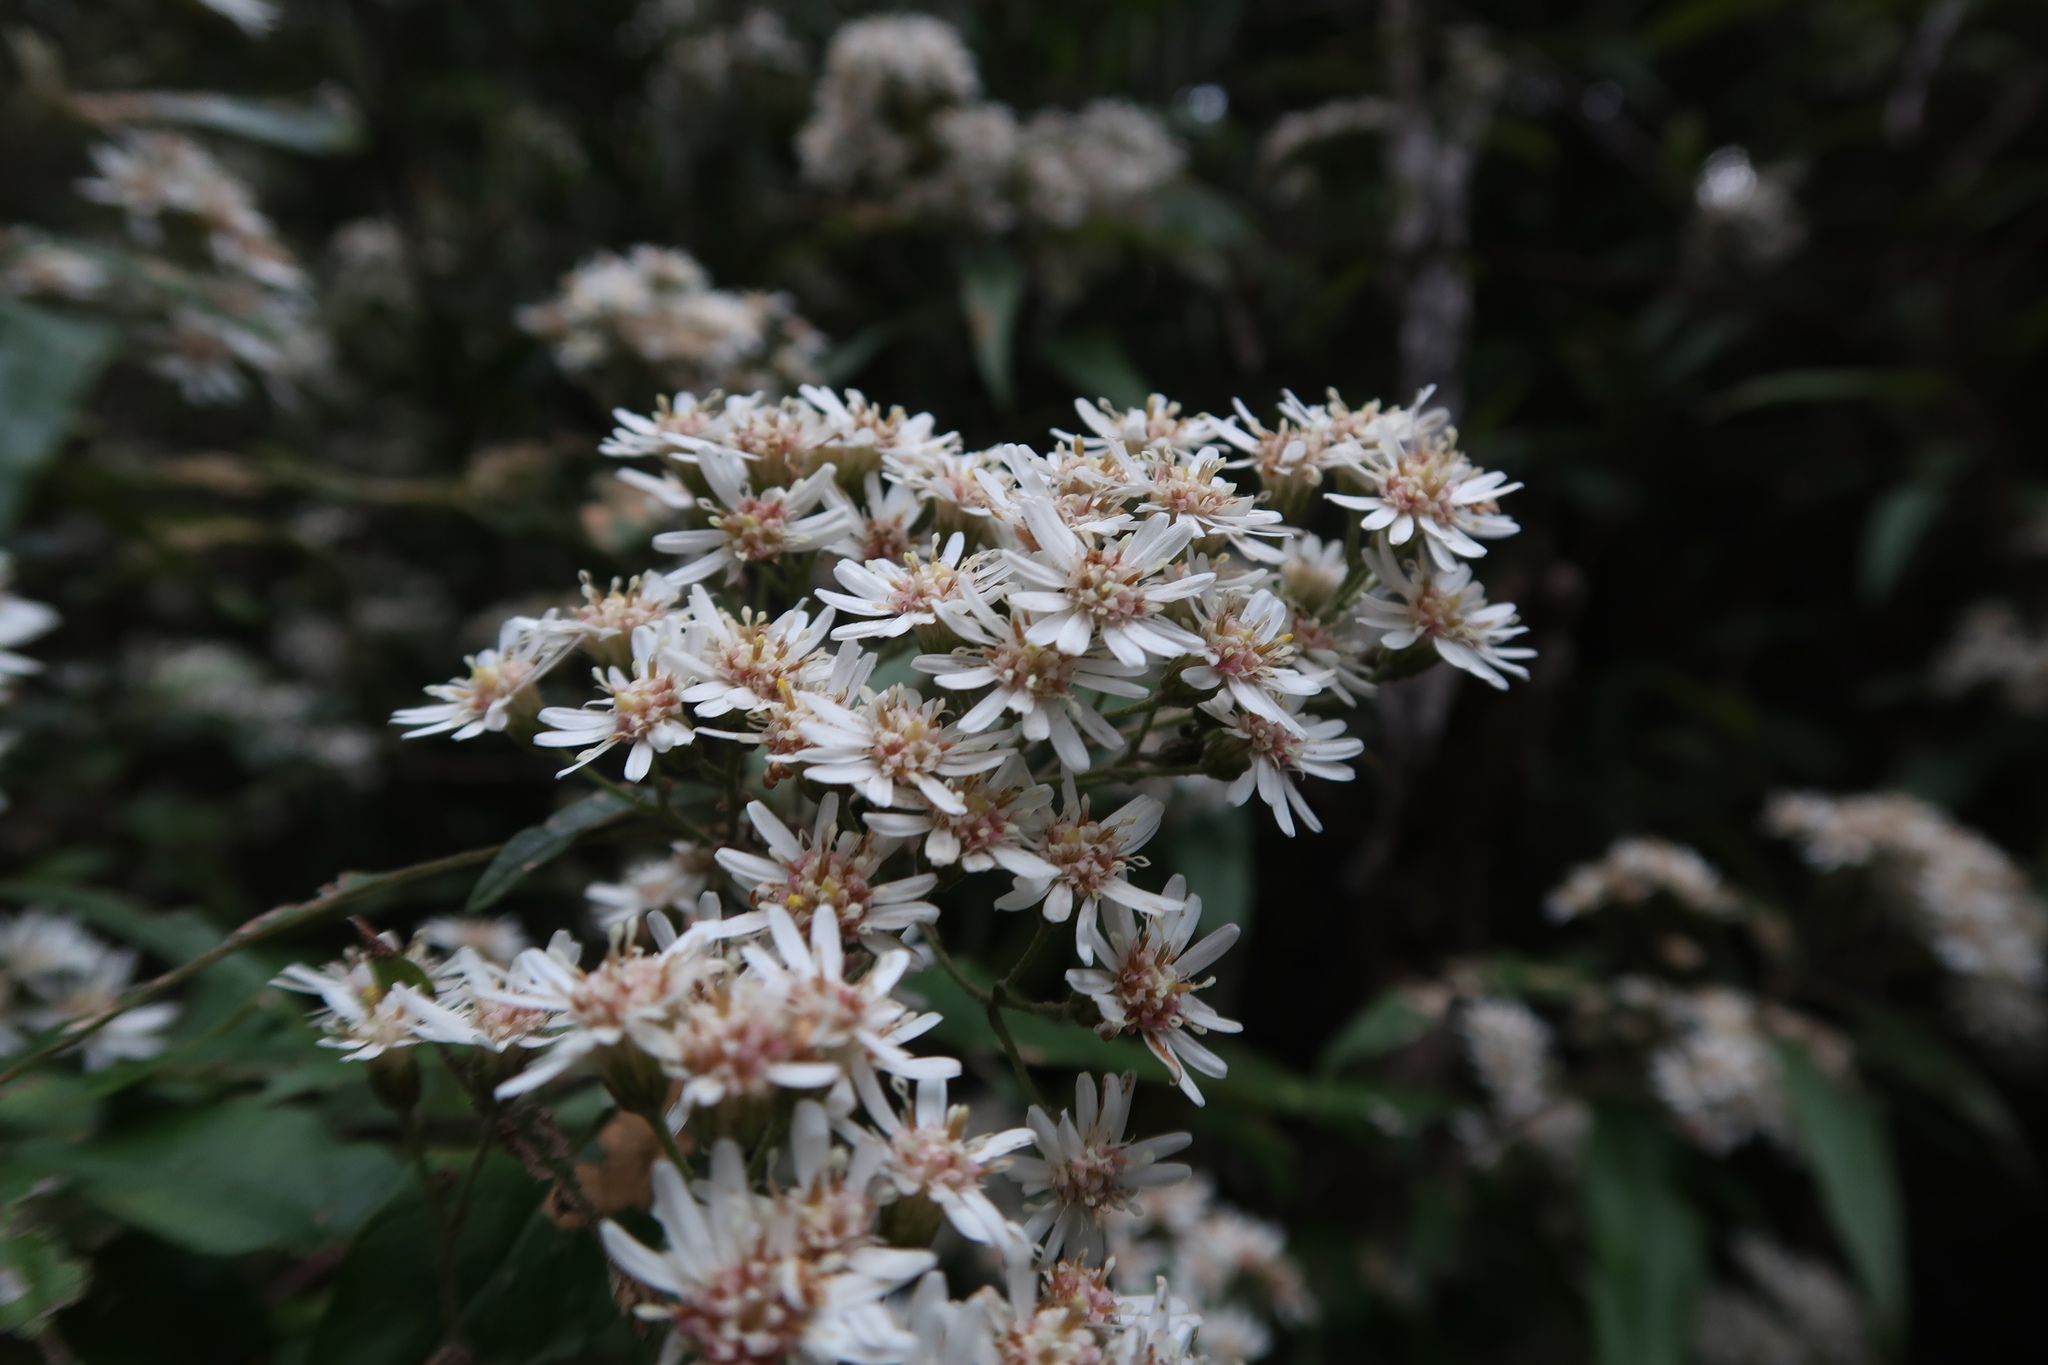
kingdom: Plantae
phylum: Tracheophyta
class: Magnoliopsida
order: Asterales
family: Asteraceae
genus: Olearia
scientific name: Olearia lirata
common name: Dusty daisybush
